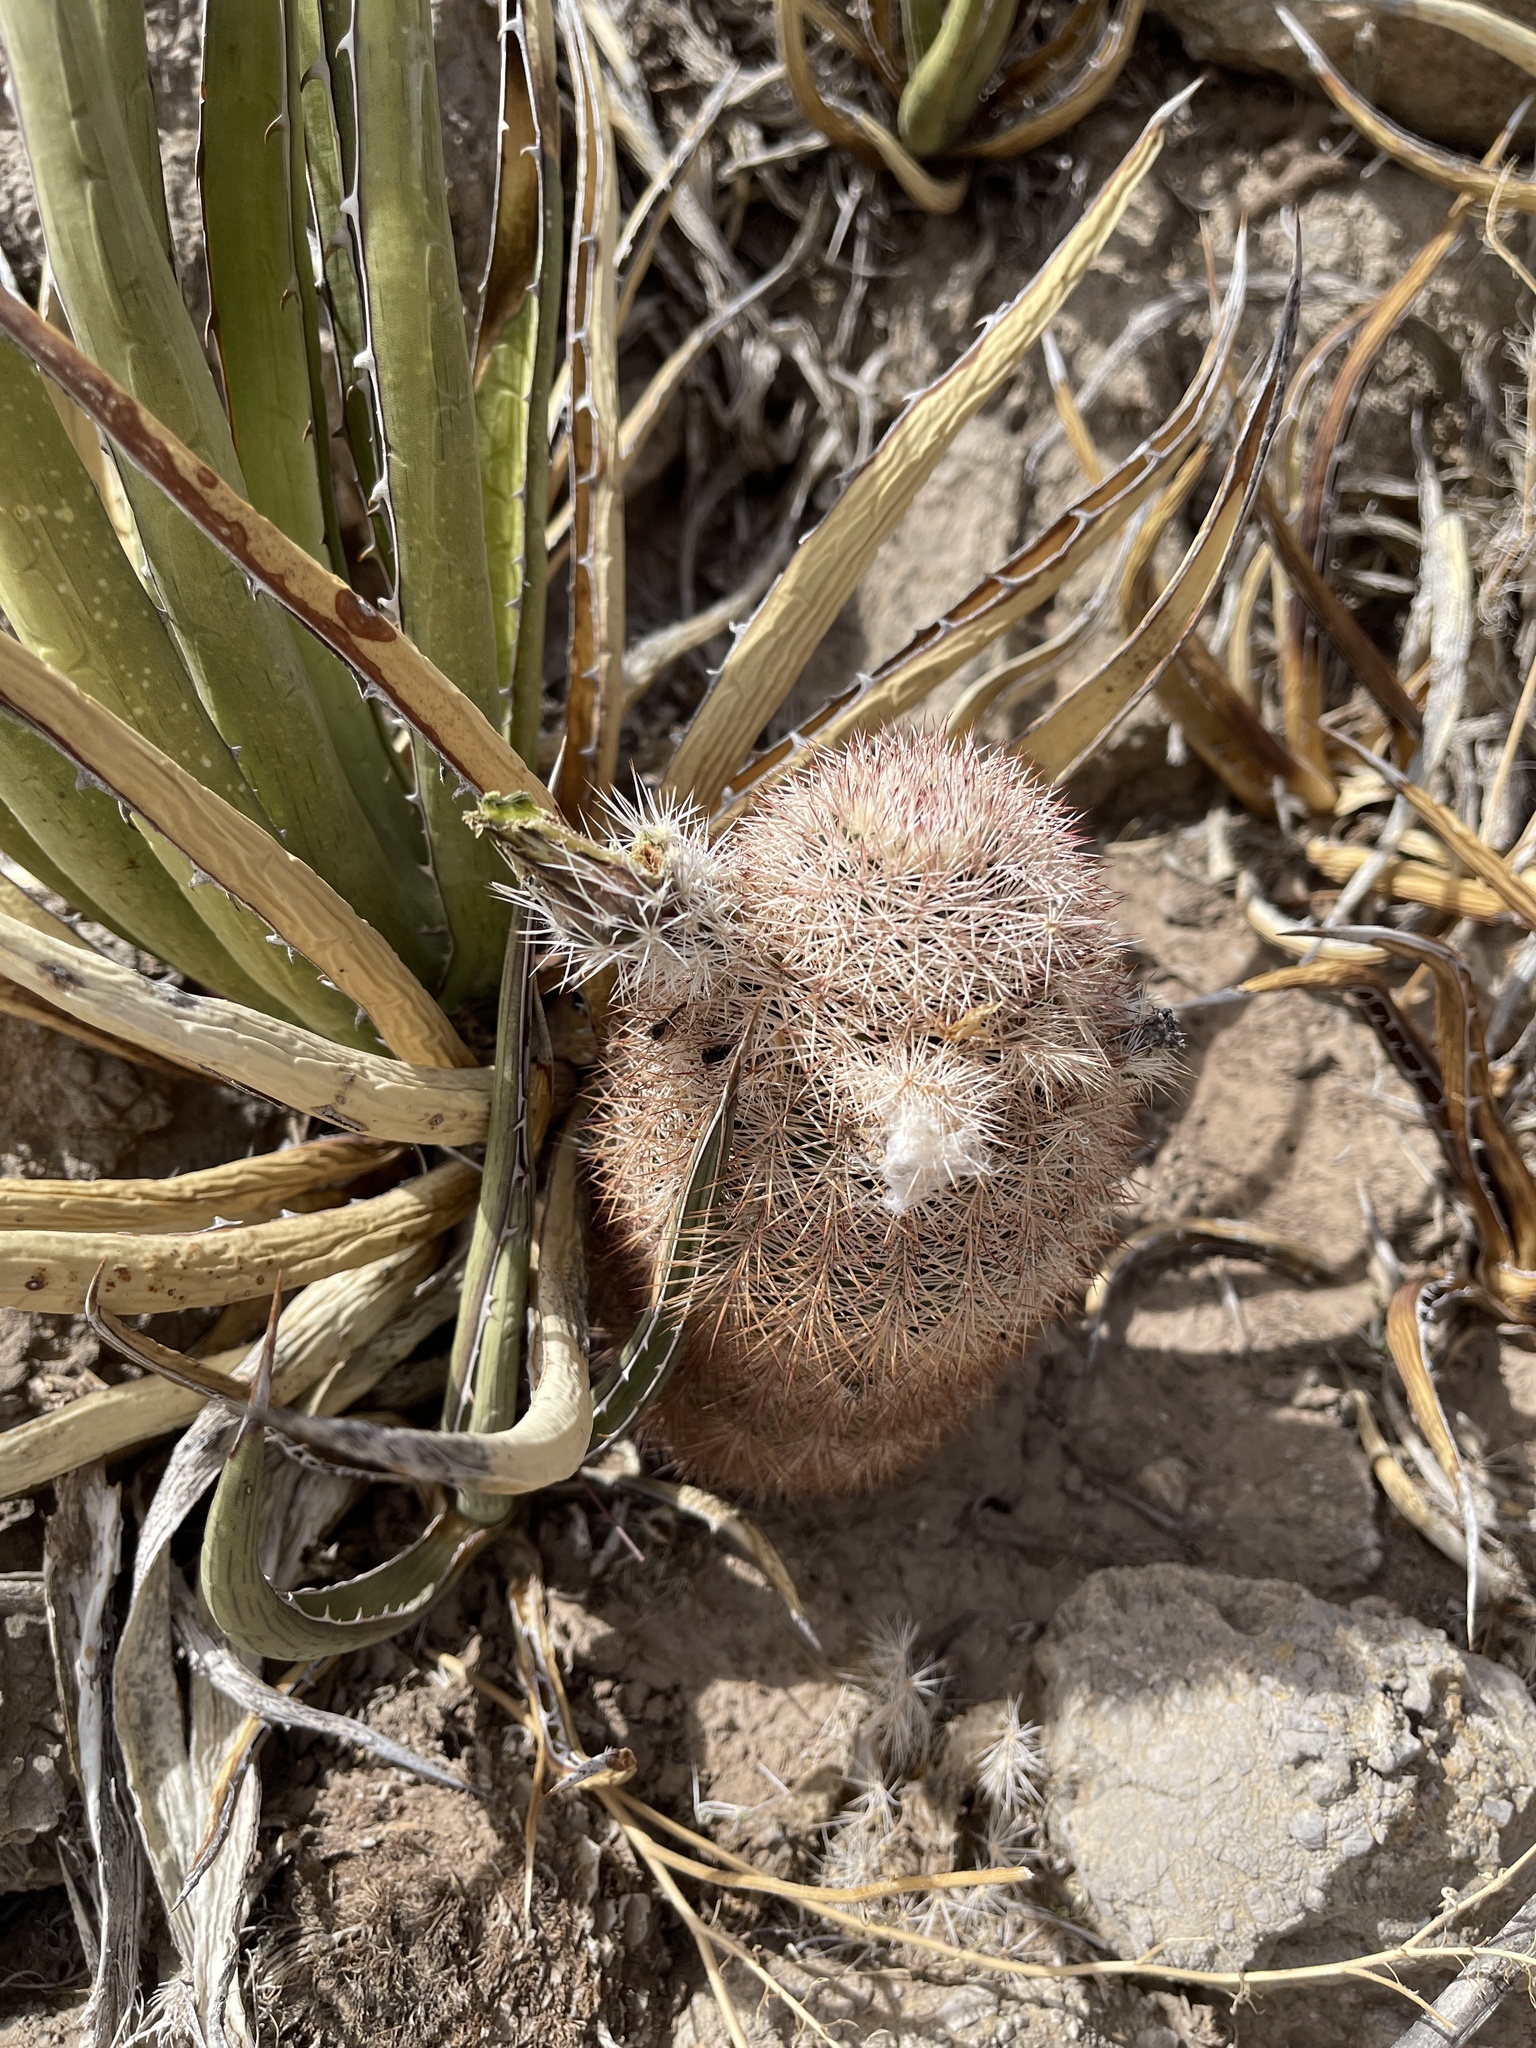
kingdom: Plantae
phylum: Tracheophyta
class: Magnoliopsida
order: Caryophyllales
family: Cactaceae
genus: Echinocereus
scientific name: Echinocereus dasyacanthus
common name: Spiny hedgehog cactus
